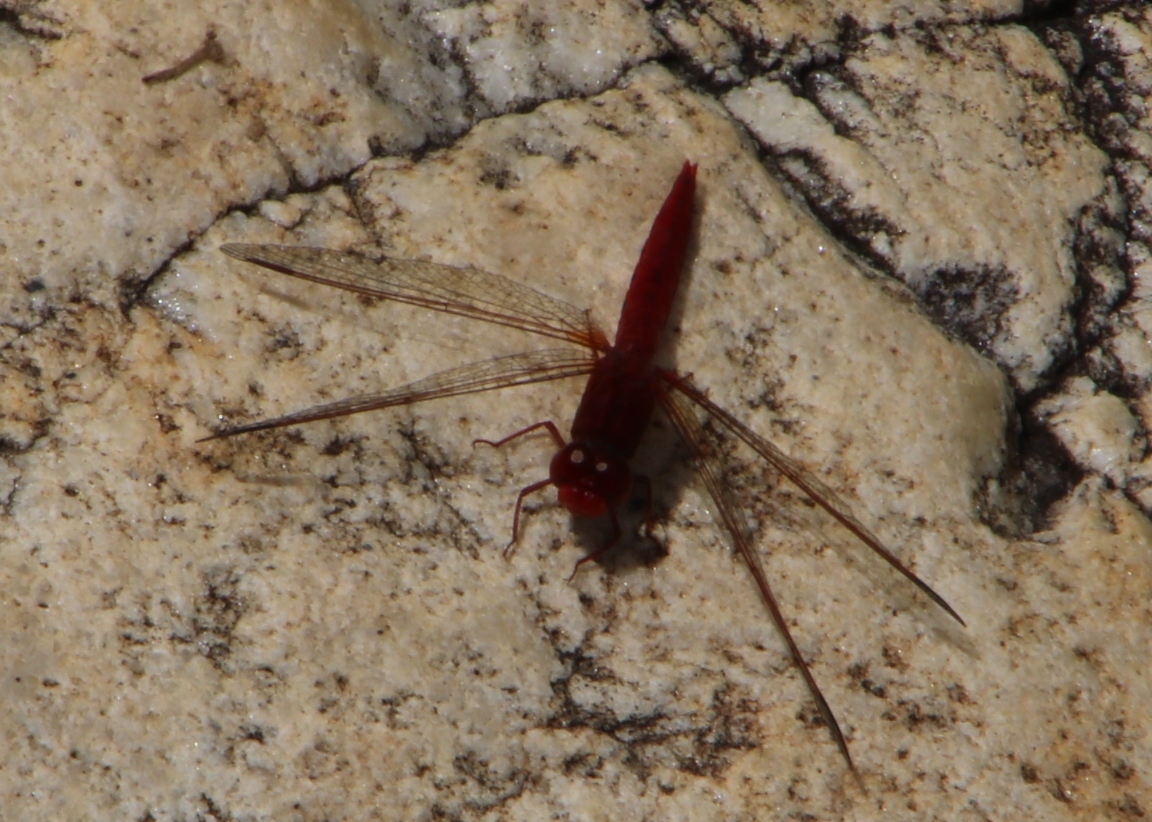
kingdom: Animalia
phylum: Arthropoda
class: Insecta
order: Odonata
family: Libellulidae
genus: Crocothemis
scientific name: Crocothemis sanguinolenta
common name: Little scarlet
